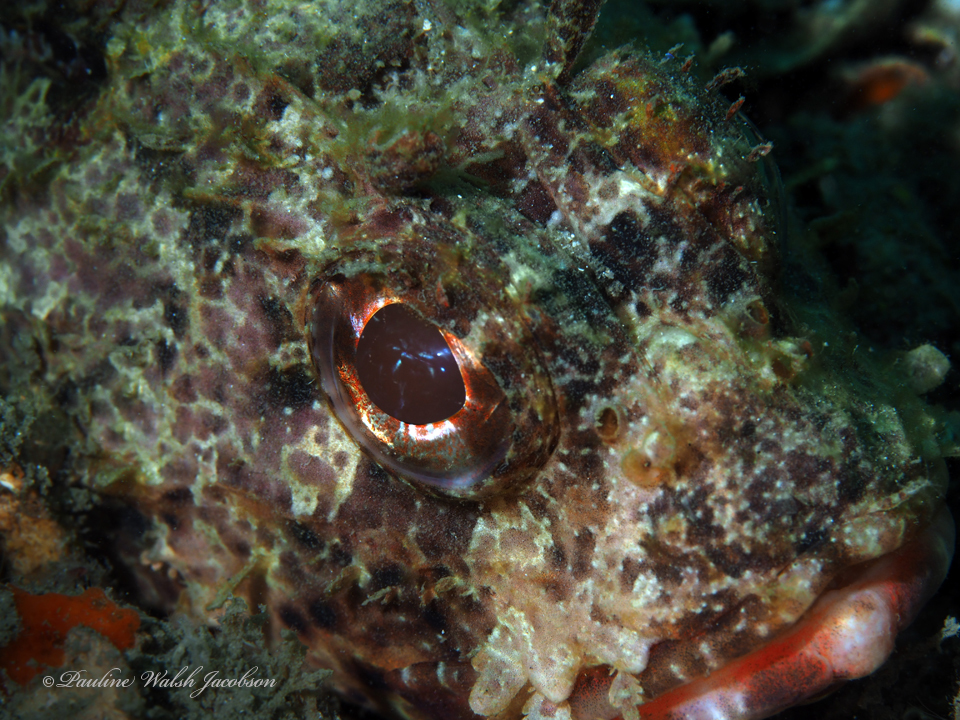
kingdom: Animalia
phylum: Chordata
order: Scorpaeniformes
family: Scorpaenidae
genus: Scorpaena
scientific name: Scorpaena brasiliensis
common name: Barbfish
